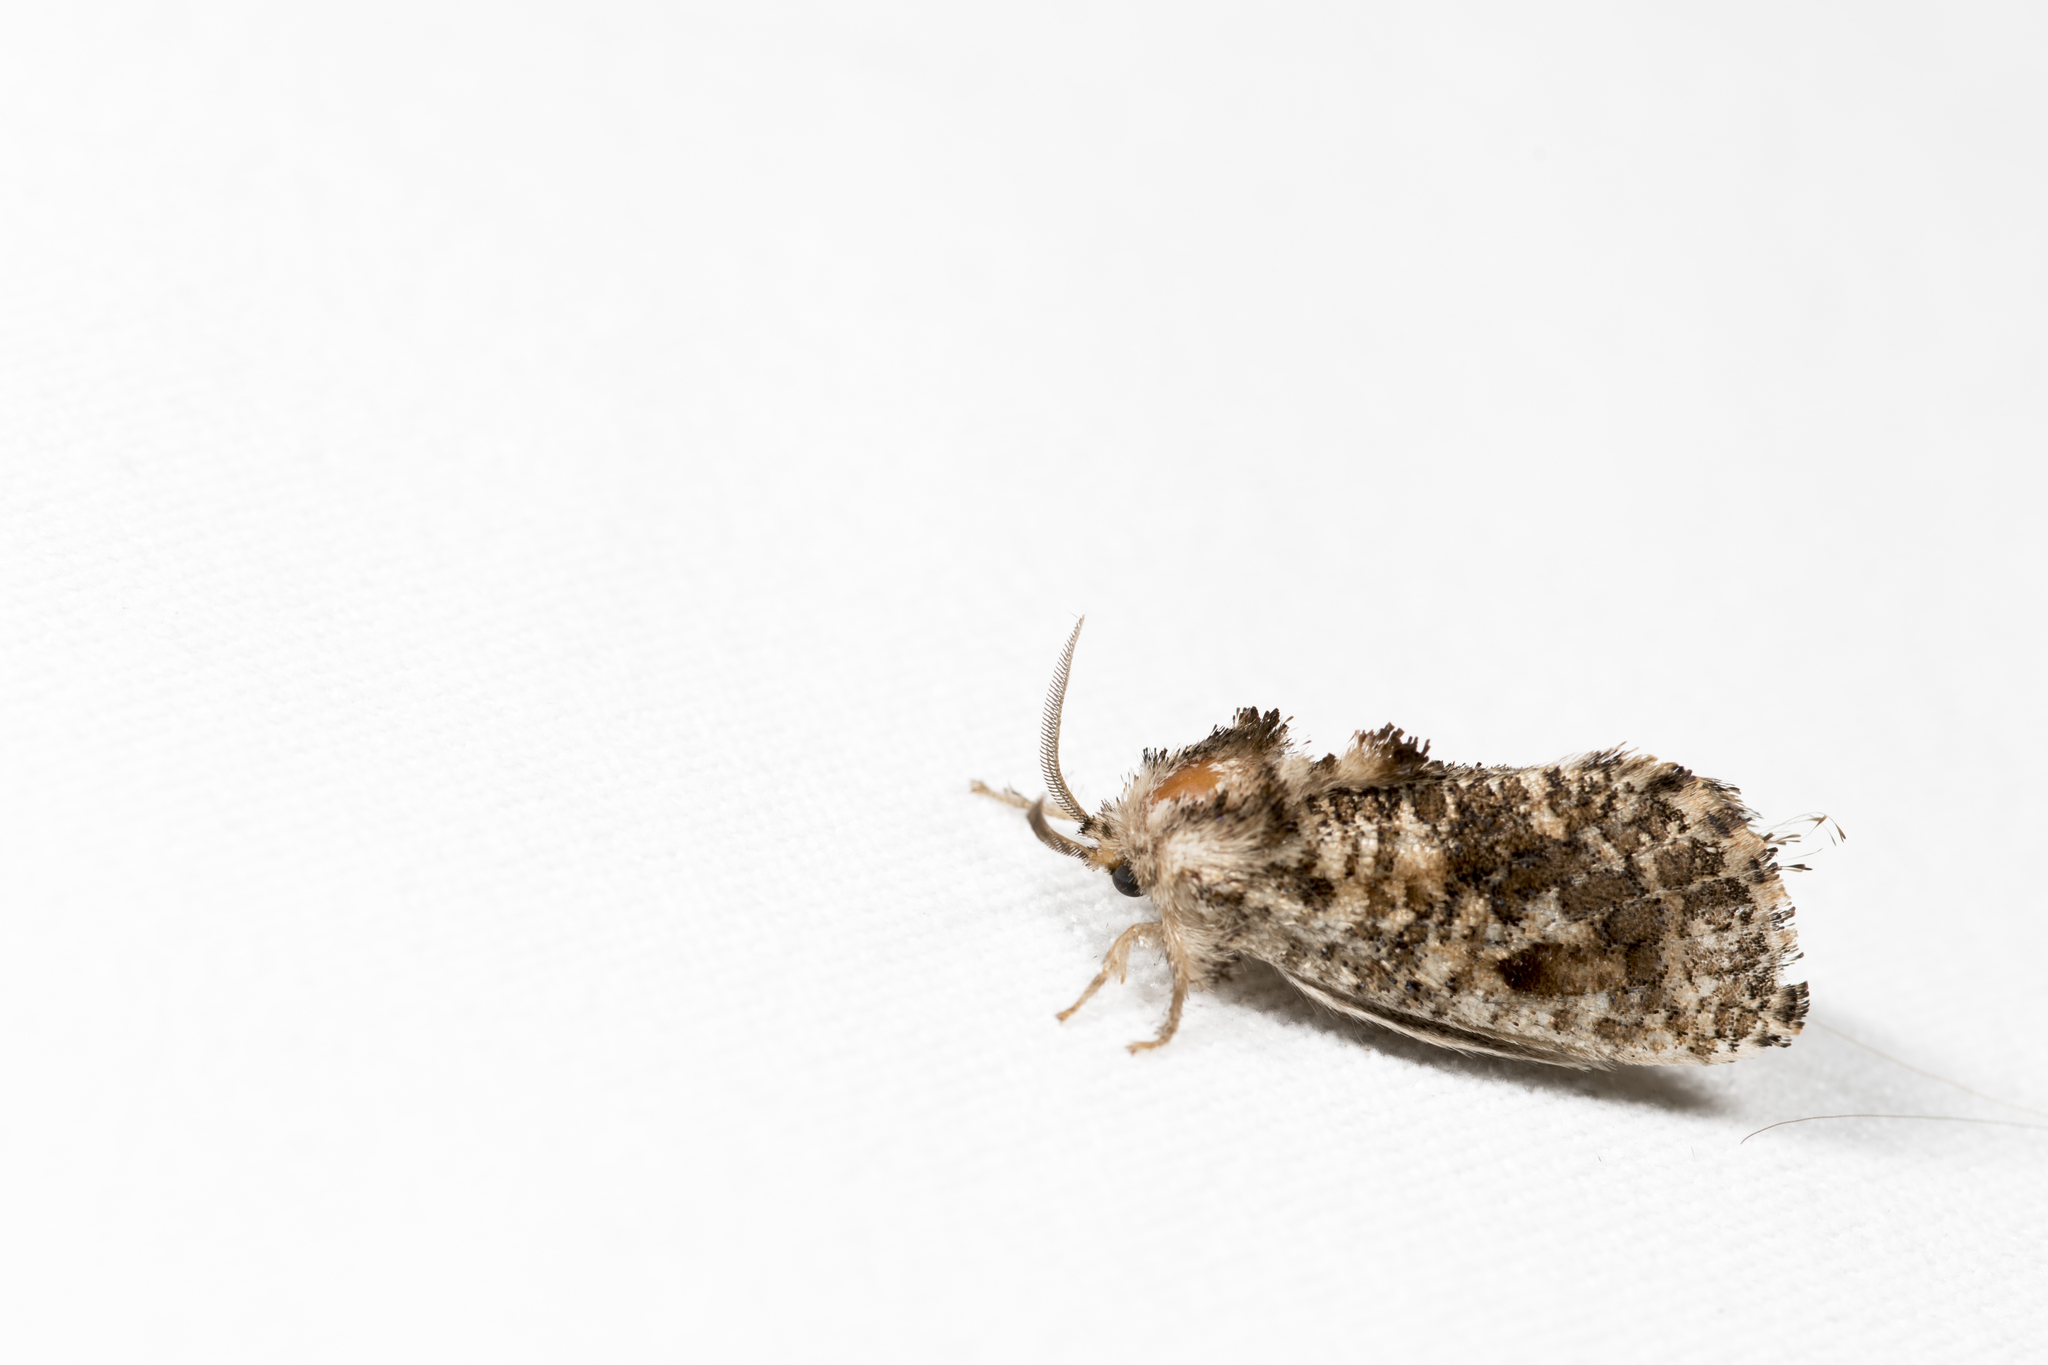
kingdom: Animalia
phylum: Arthropoda
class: Insecta
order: Lepidoptera
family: Metarbelidae
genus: Indarbela
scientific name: Indarbela discipuncta
